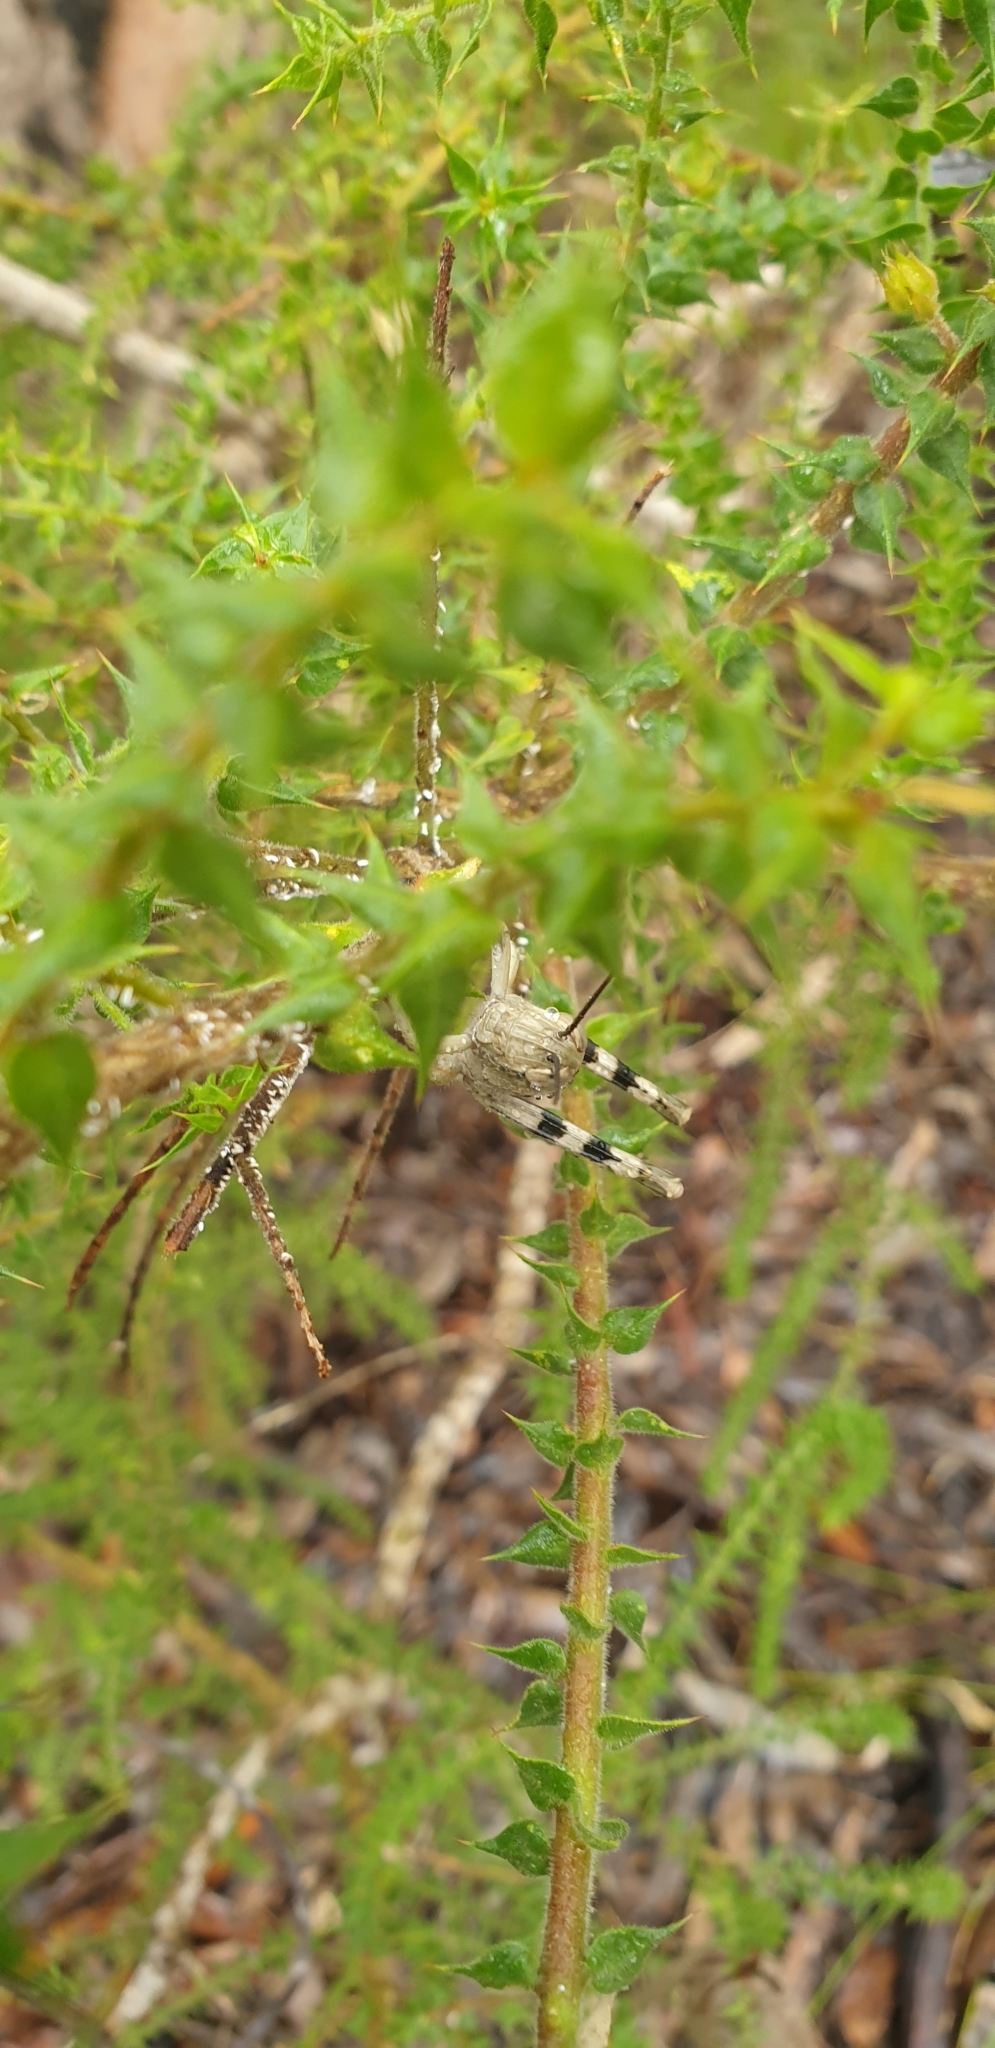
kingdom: Animalia
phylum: Arthropoda
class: Insecta
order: Orthoptera
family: Acrididae
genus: Valanga
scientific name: Valanga irregularis
